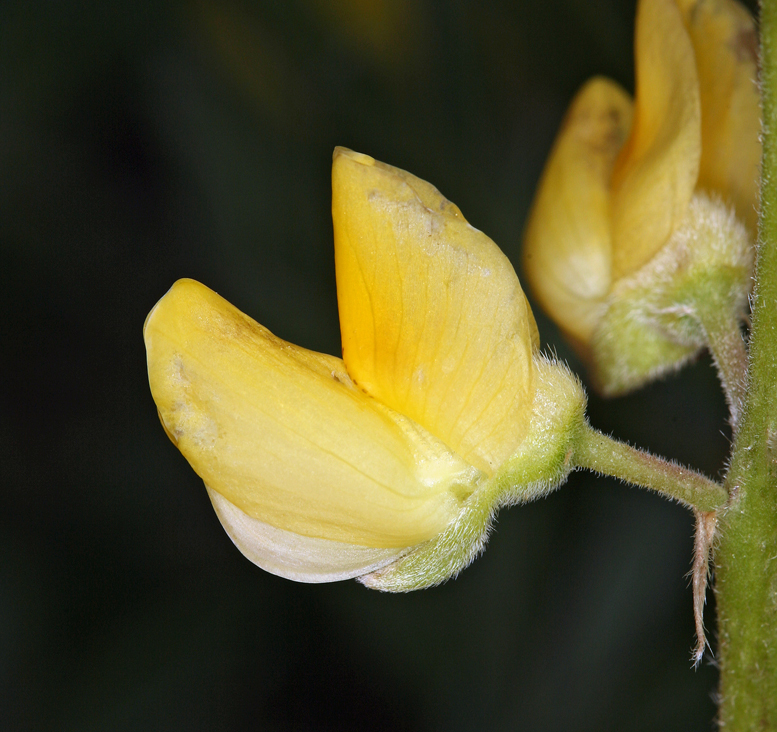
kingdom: Plantae
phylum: Tracheophyta
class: Magnoliopsida
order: Fabales
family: Fabaceae
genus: Lupinus
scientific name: Lupinus croceus
